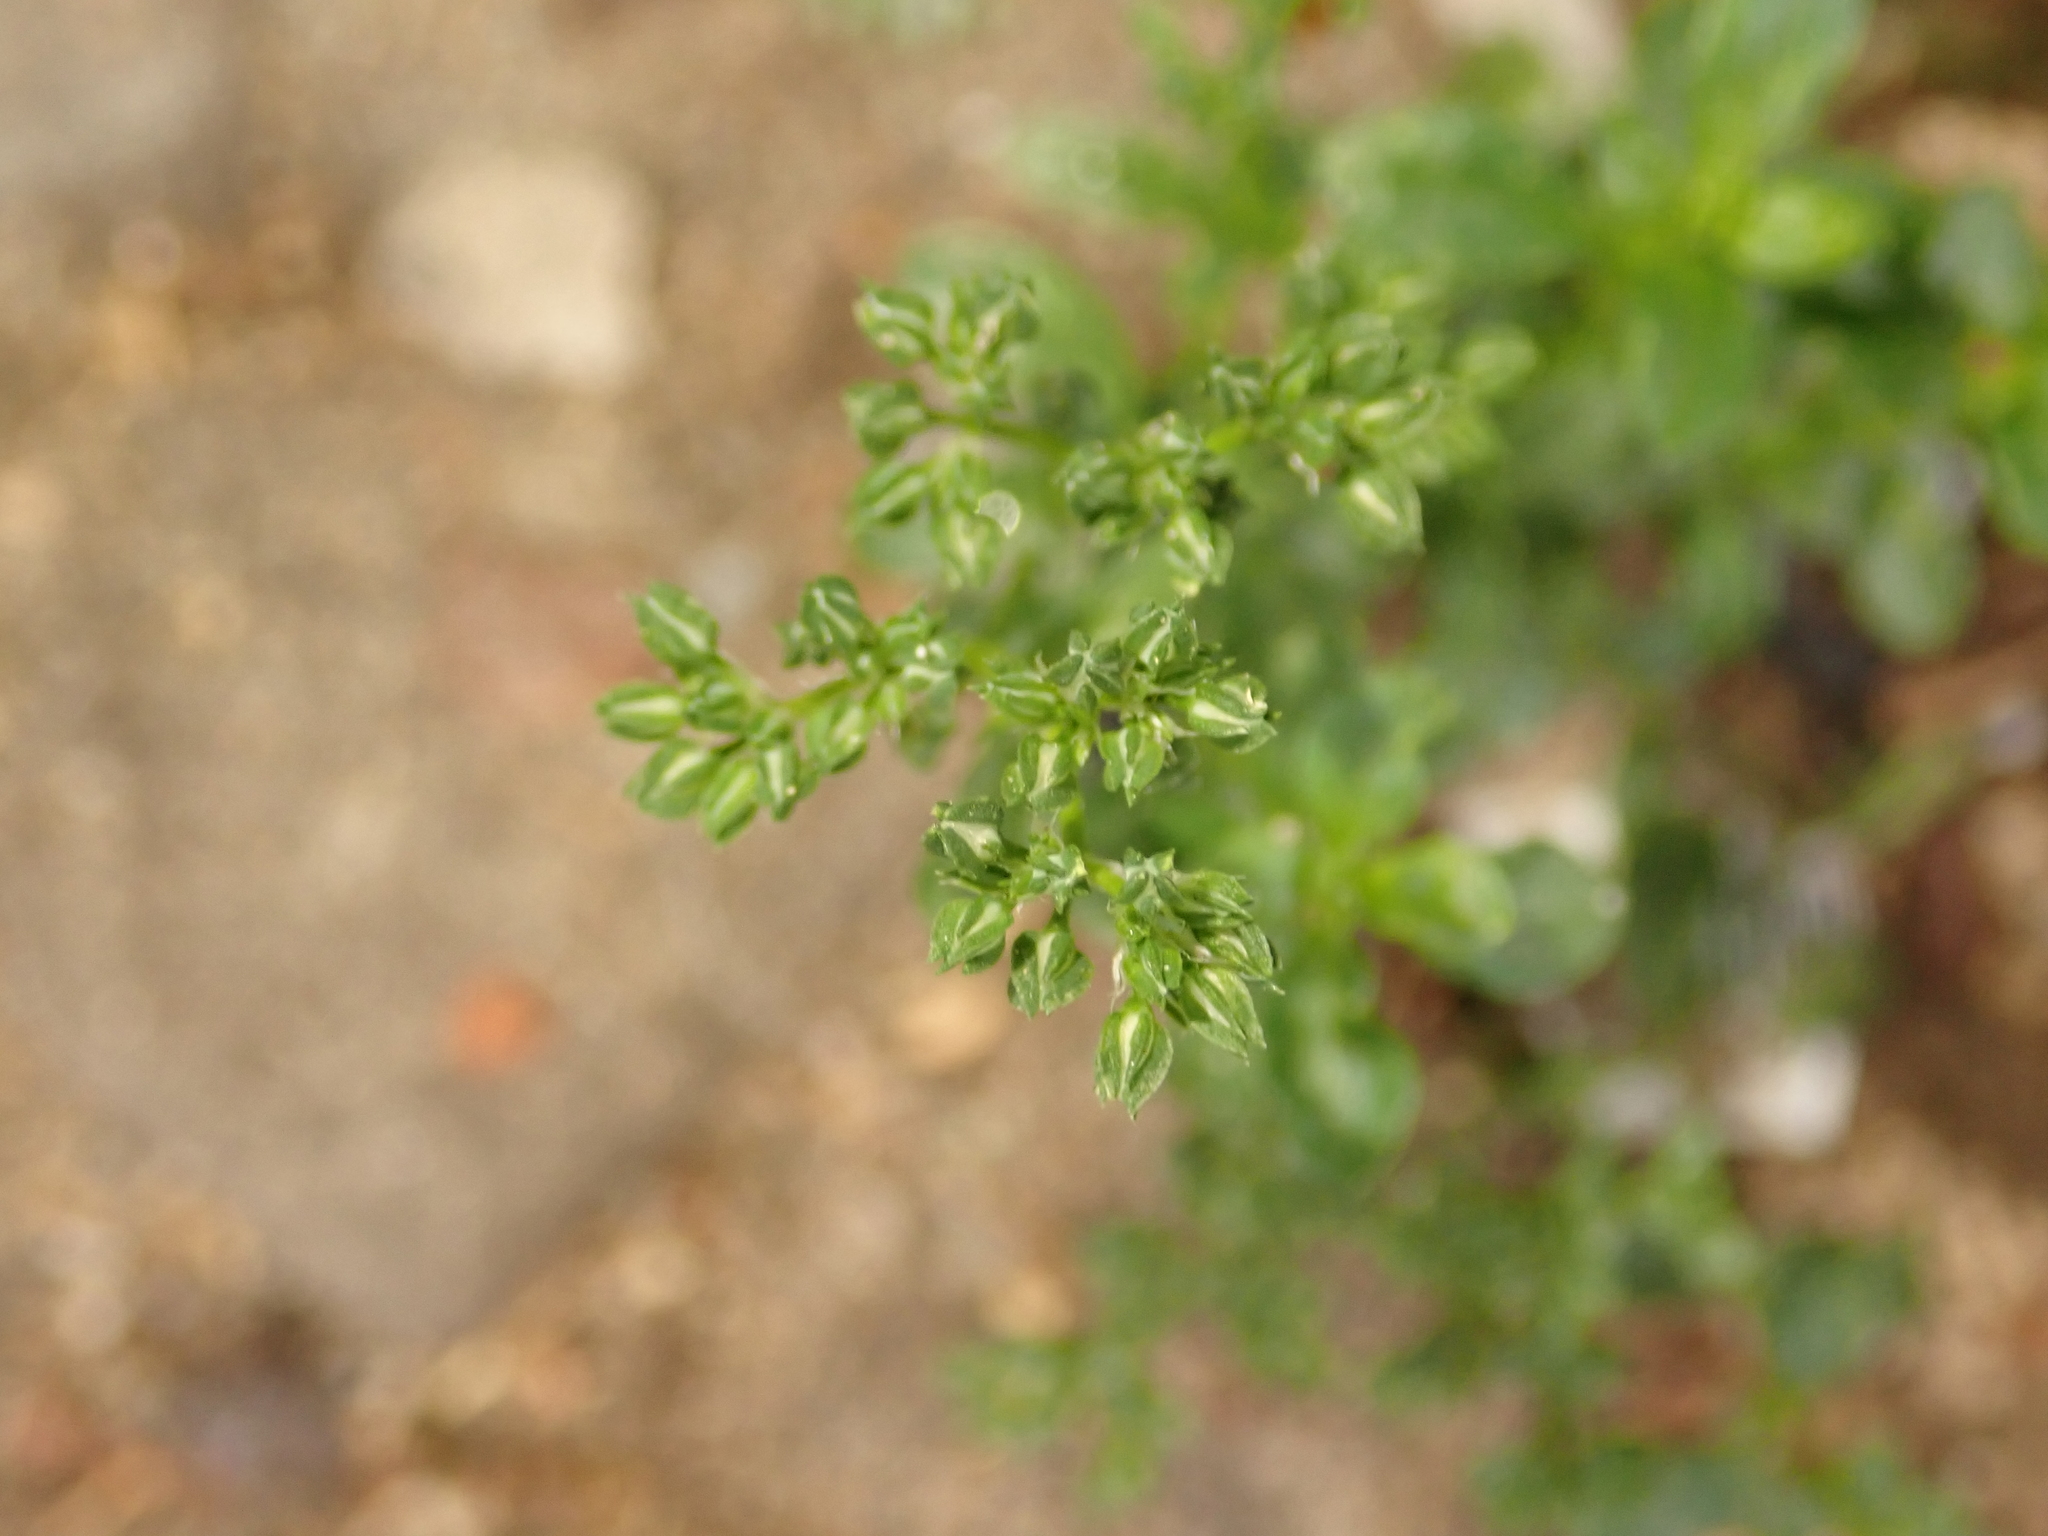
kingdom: Plantae
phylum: Tracheophyta
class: Magnoliopsida
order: Caryophyllales
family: Caryophyllaceae
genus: Polycarpon
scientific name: Polycarpon tetraphyllum
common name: Four-leaved all-seed
